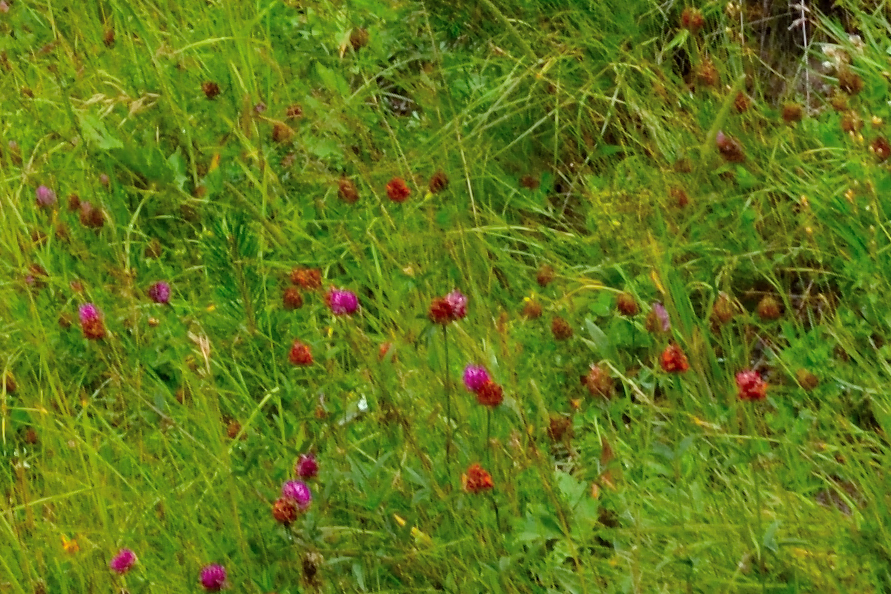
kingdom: Plantae
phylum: Tracheophyta
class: Magnoliopsida
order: Fabales
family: Fabaceae
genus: Trifolium
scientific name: Trifolium alpestre
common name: Owl-head clover
